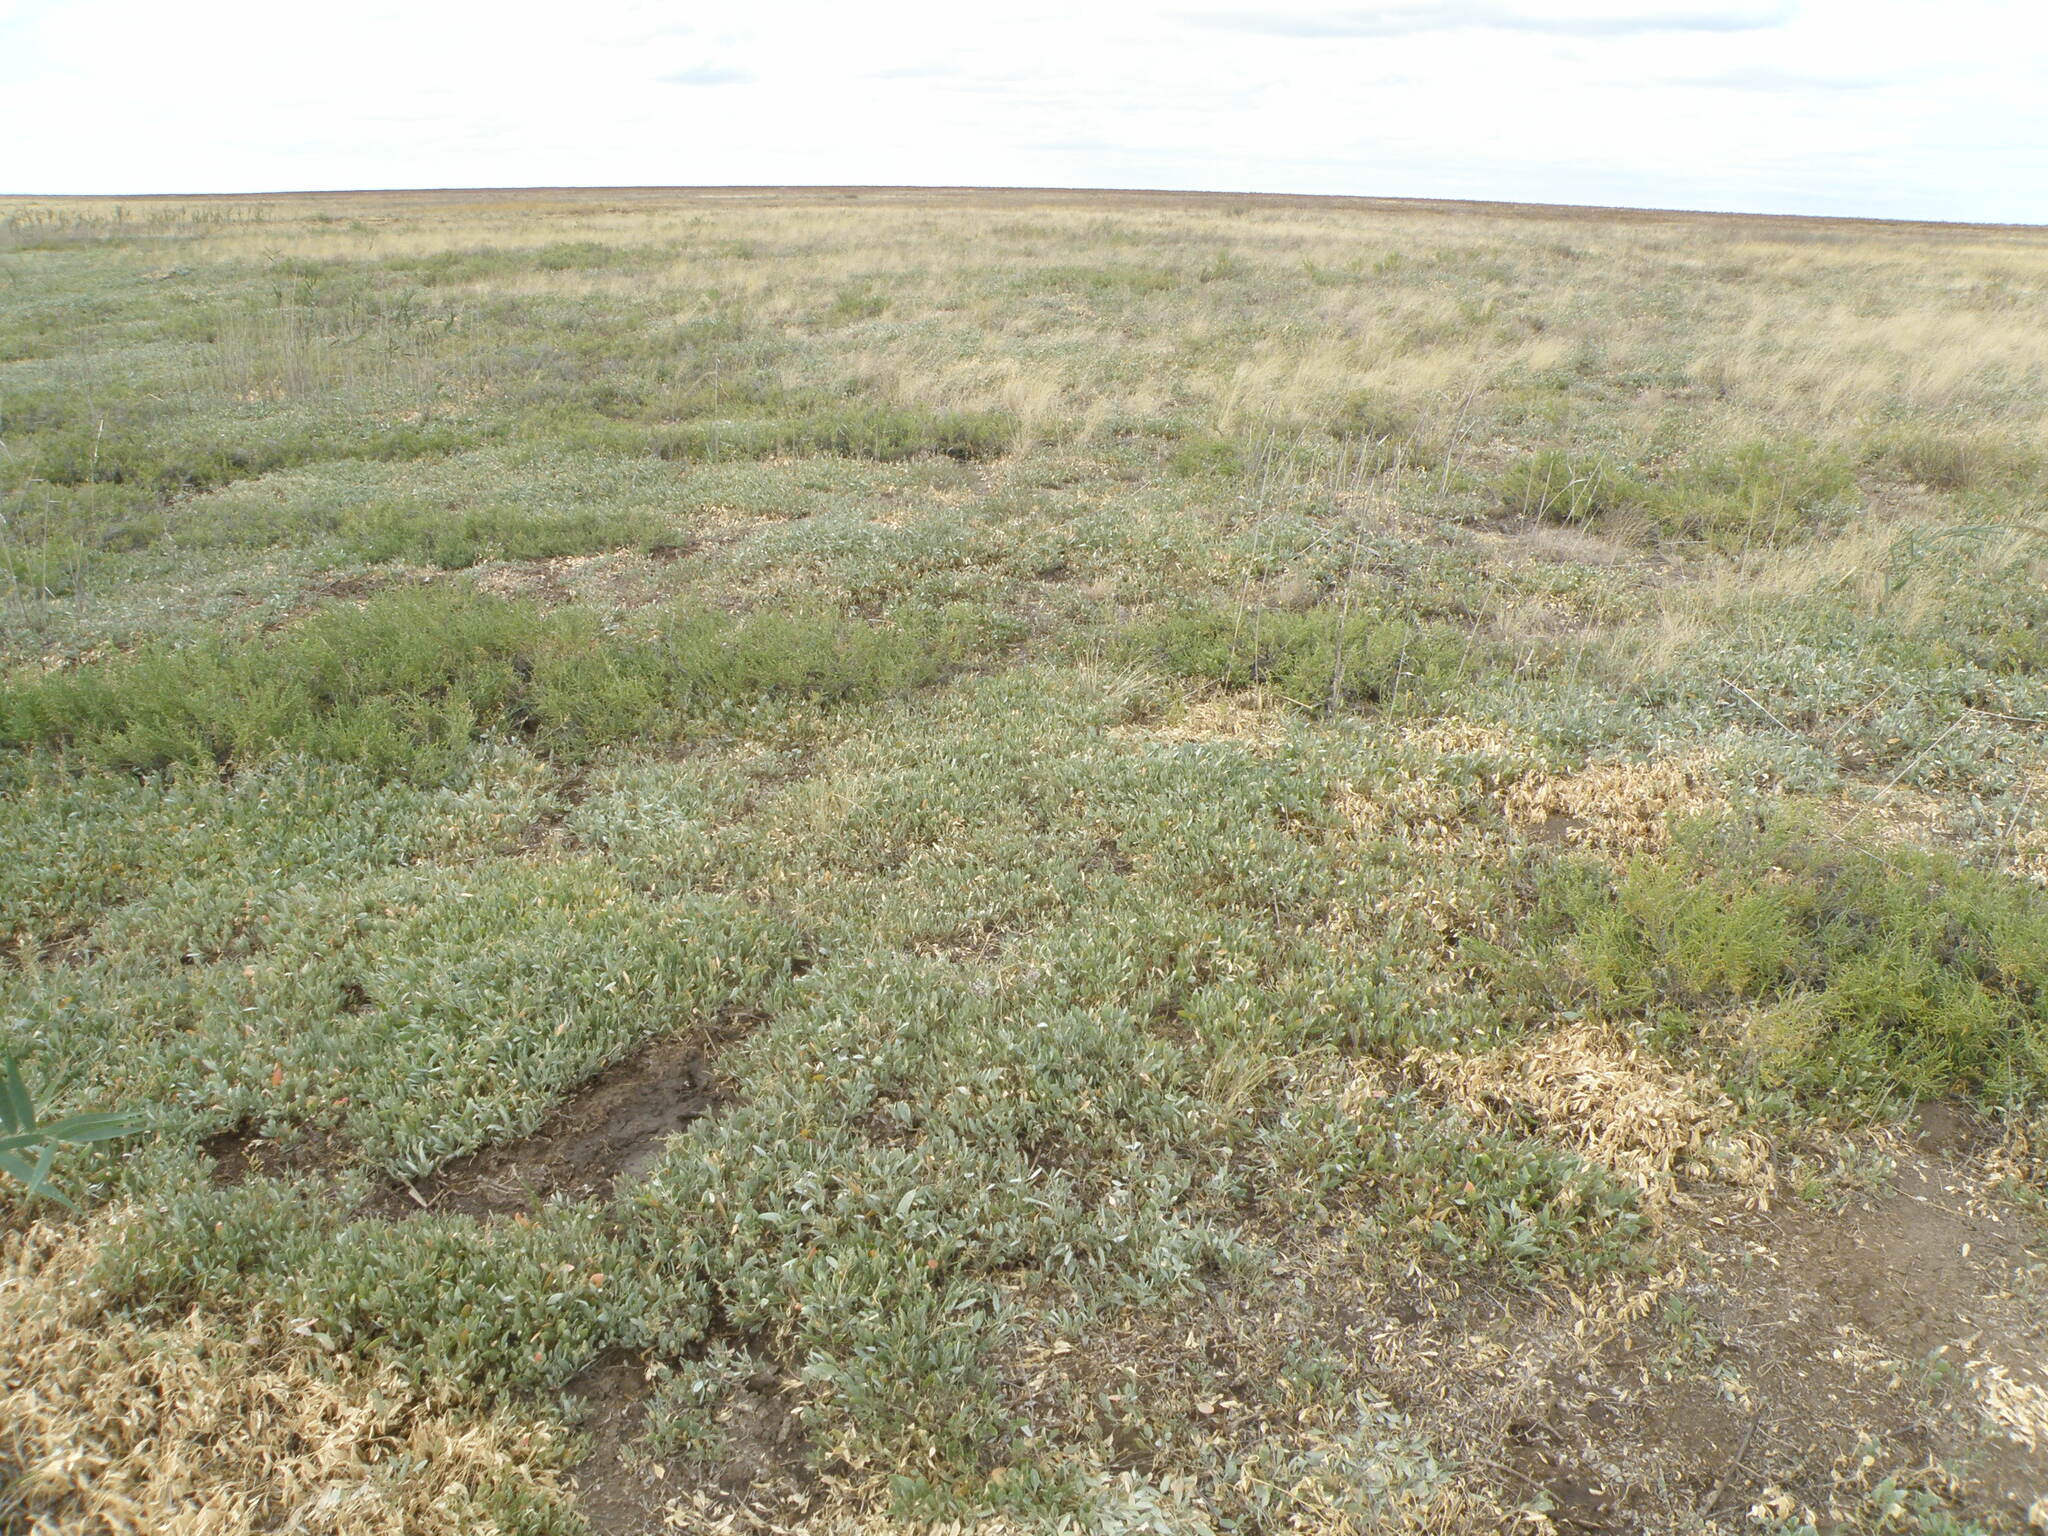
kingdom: Plantae
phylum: Tracheophyta
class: Magnoliopsida
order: Caryophyllales
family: Amaranthaceae
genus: Halimione
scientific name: Halimione verrucifera
